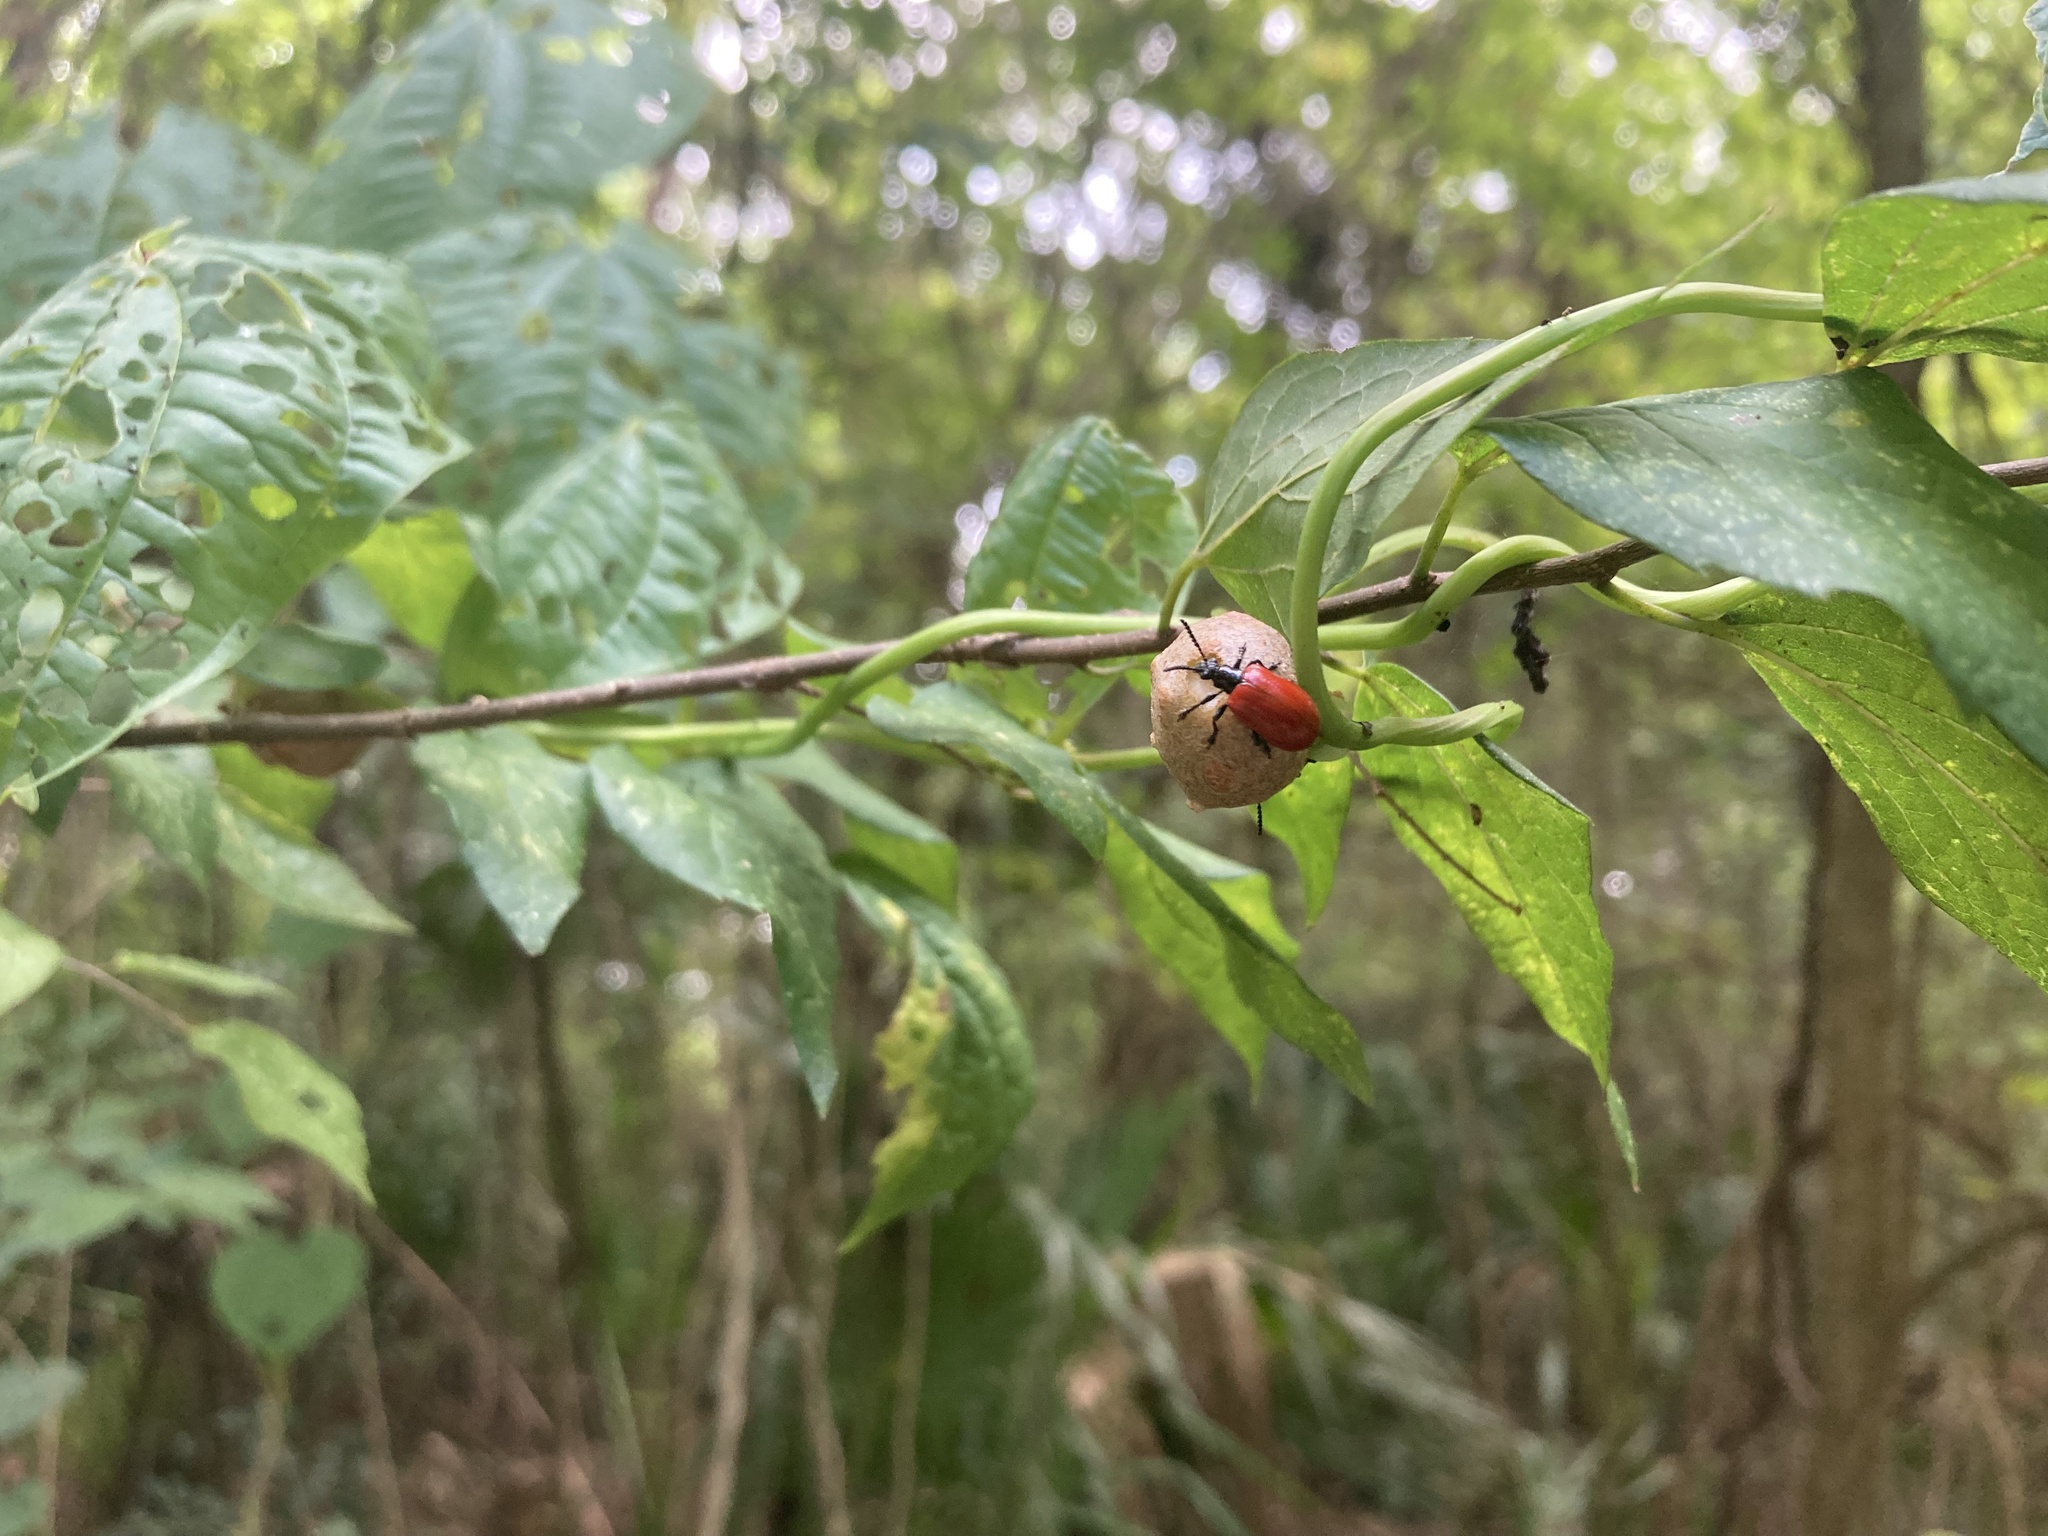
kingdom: Animalia
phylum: Arthropoda
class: Insecta
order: Coleoptera
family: Chrysomelidae
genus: Lilioceris
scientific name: Lilioceris cheni
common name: Leaf beetle
